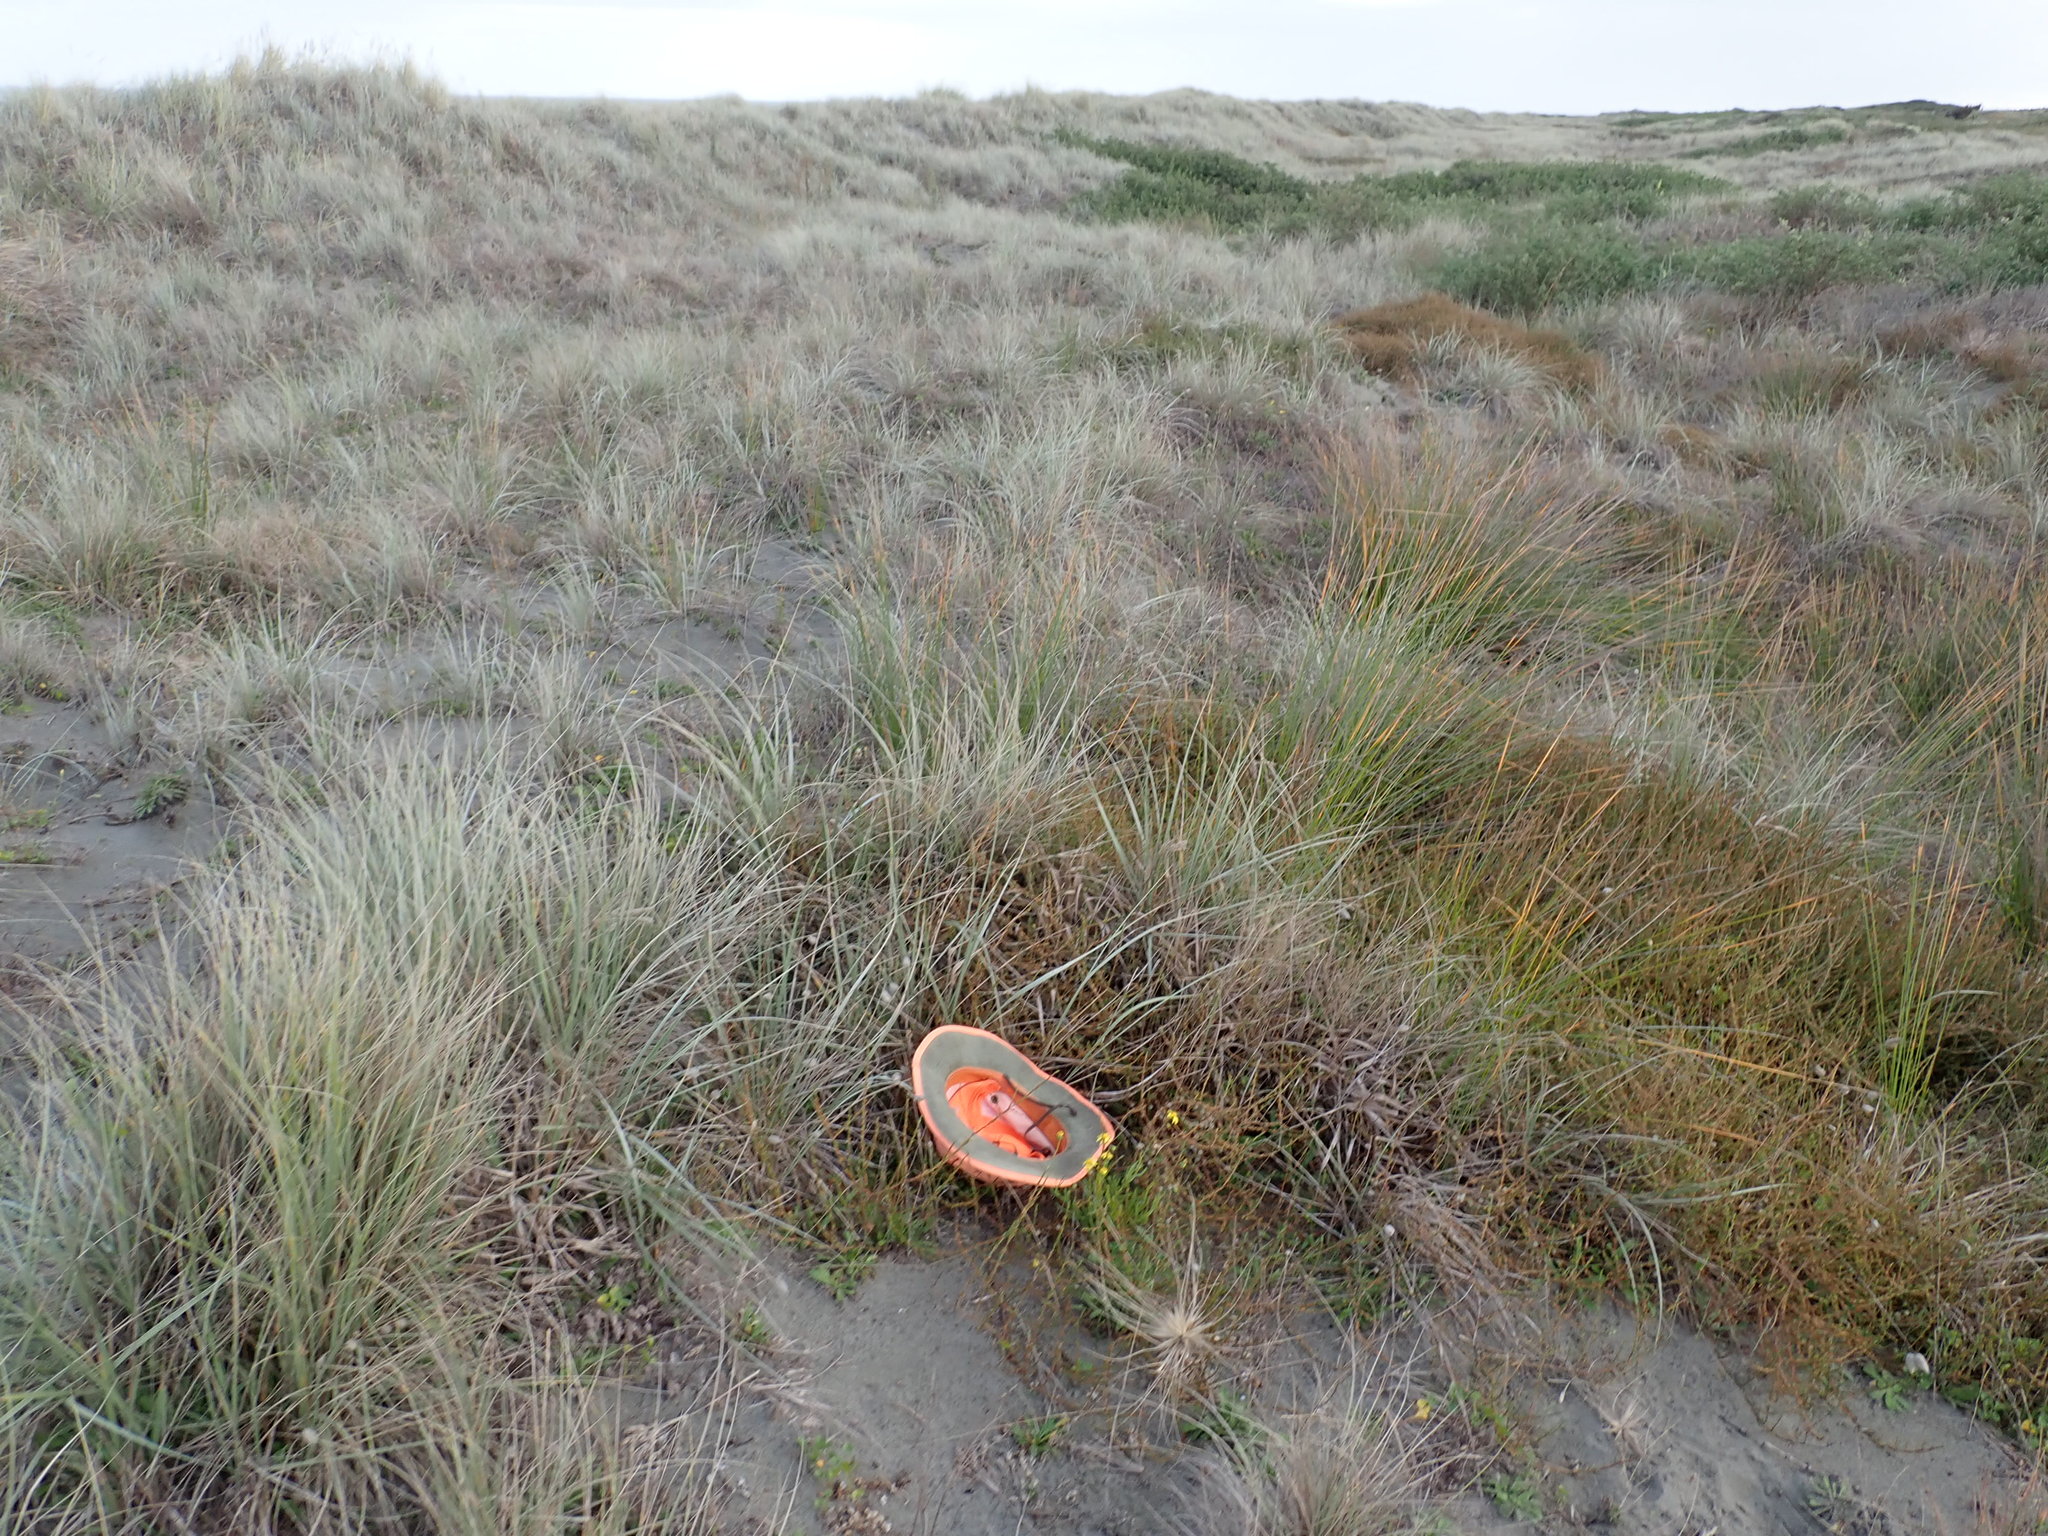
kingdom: Plantae
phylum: Tracheophyta
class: Magnoliopsida
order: Asterales
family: Asteraceae
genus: Senecio
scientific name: Senecio skirrhodon
